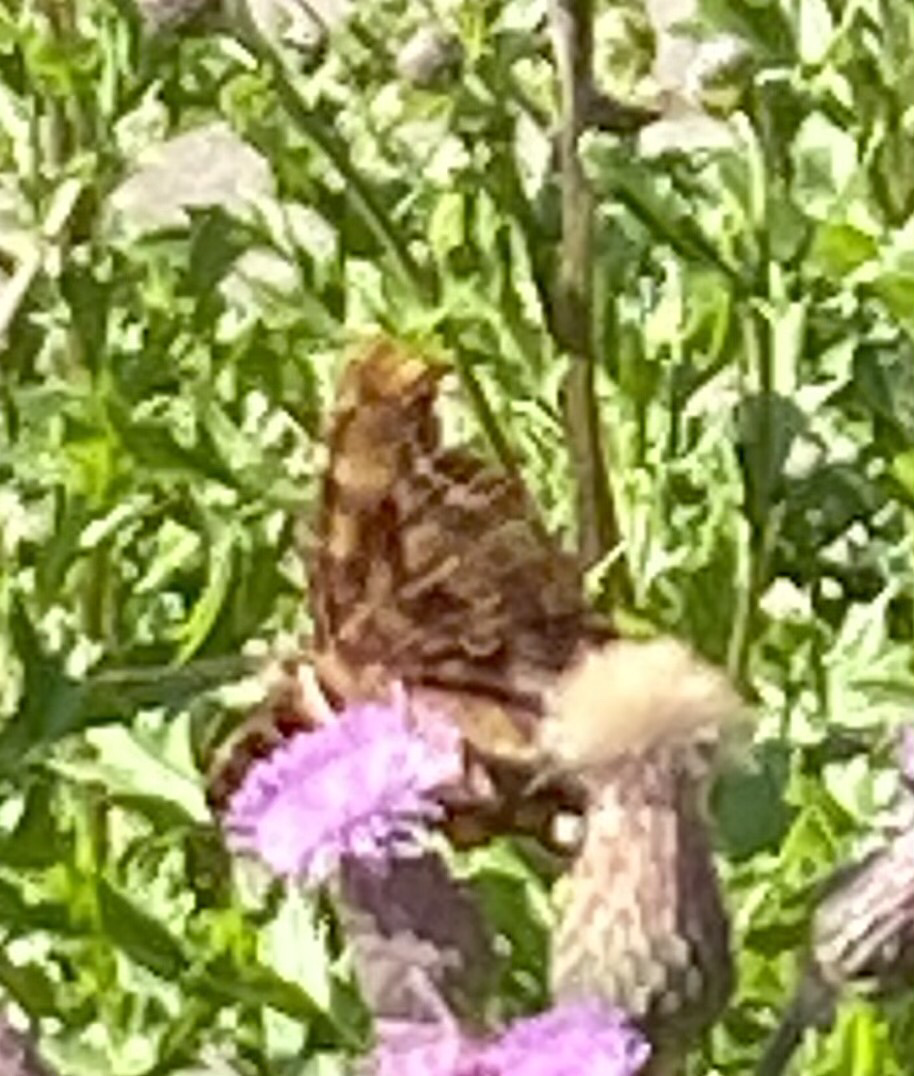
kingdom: Animalia
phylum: Arthropoda
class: Insecta
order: Lepidoptera
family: Nymphalidae
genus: Polygonia
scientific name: Polygonia c-album
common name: Comma
